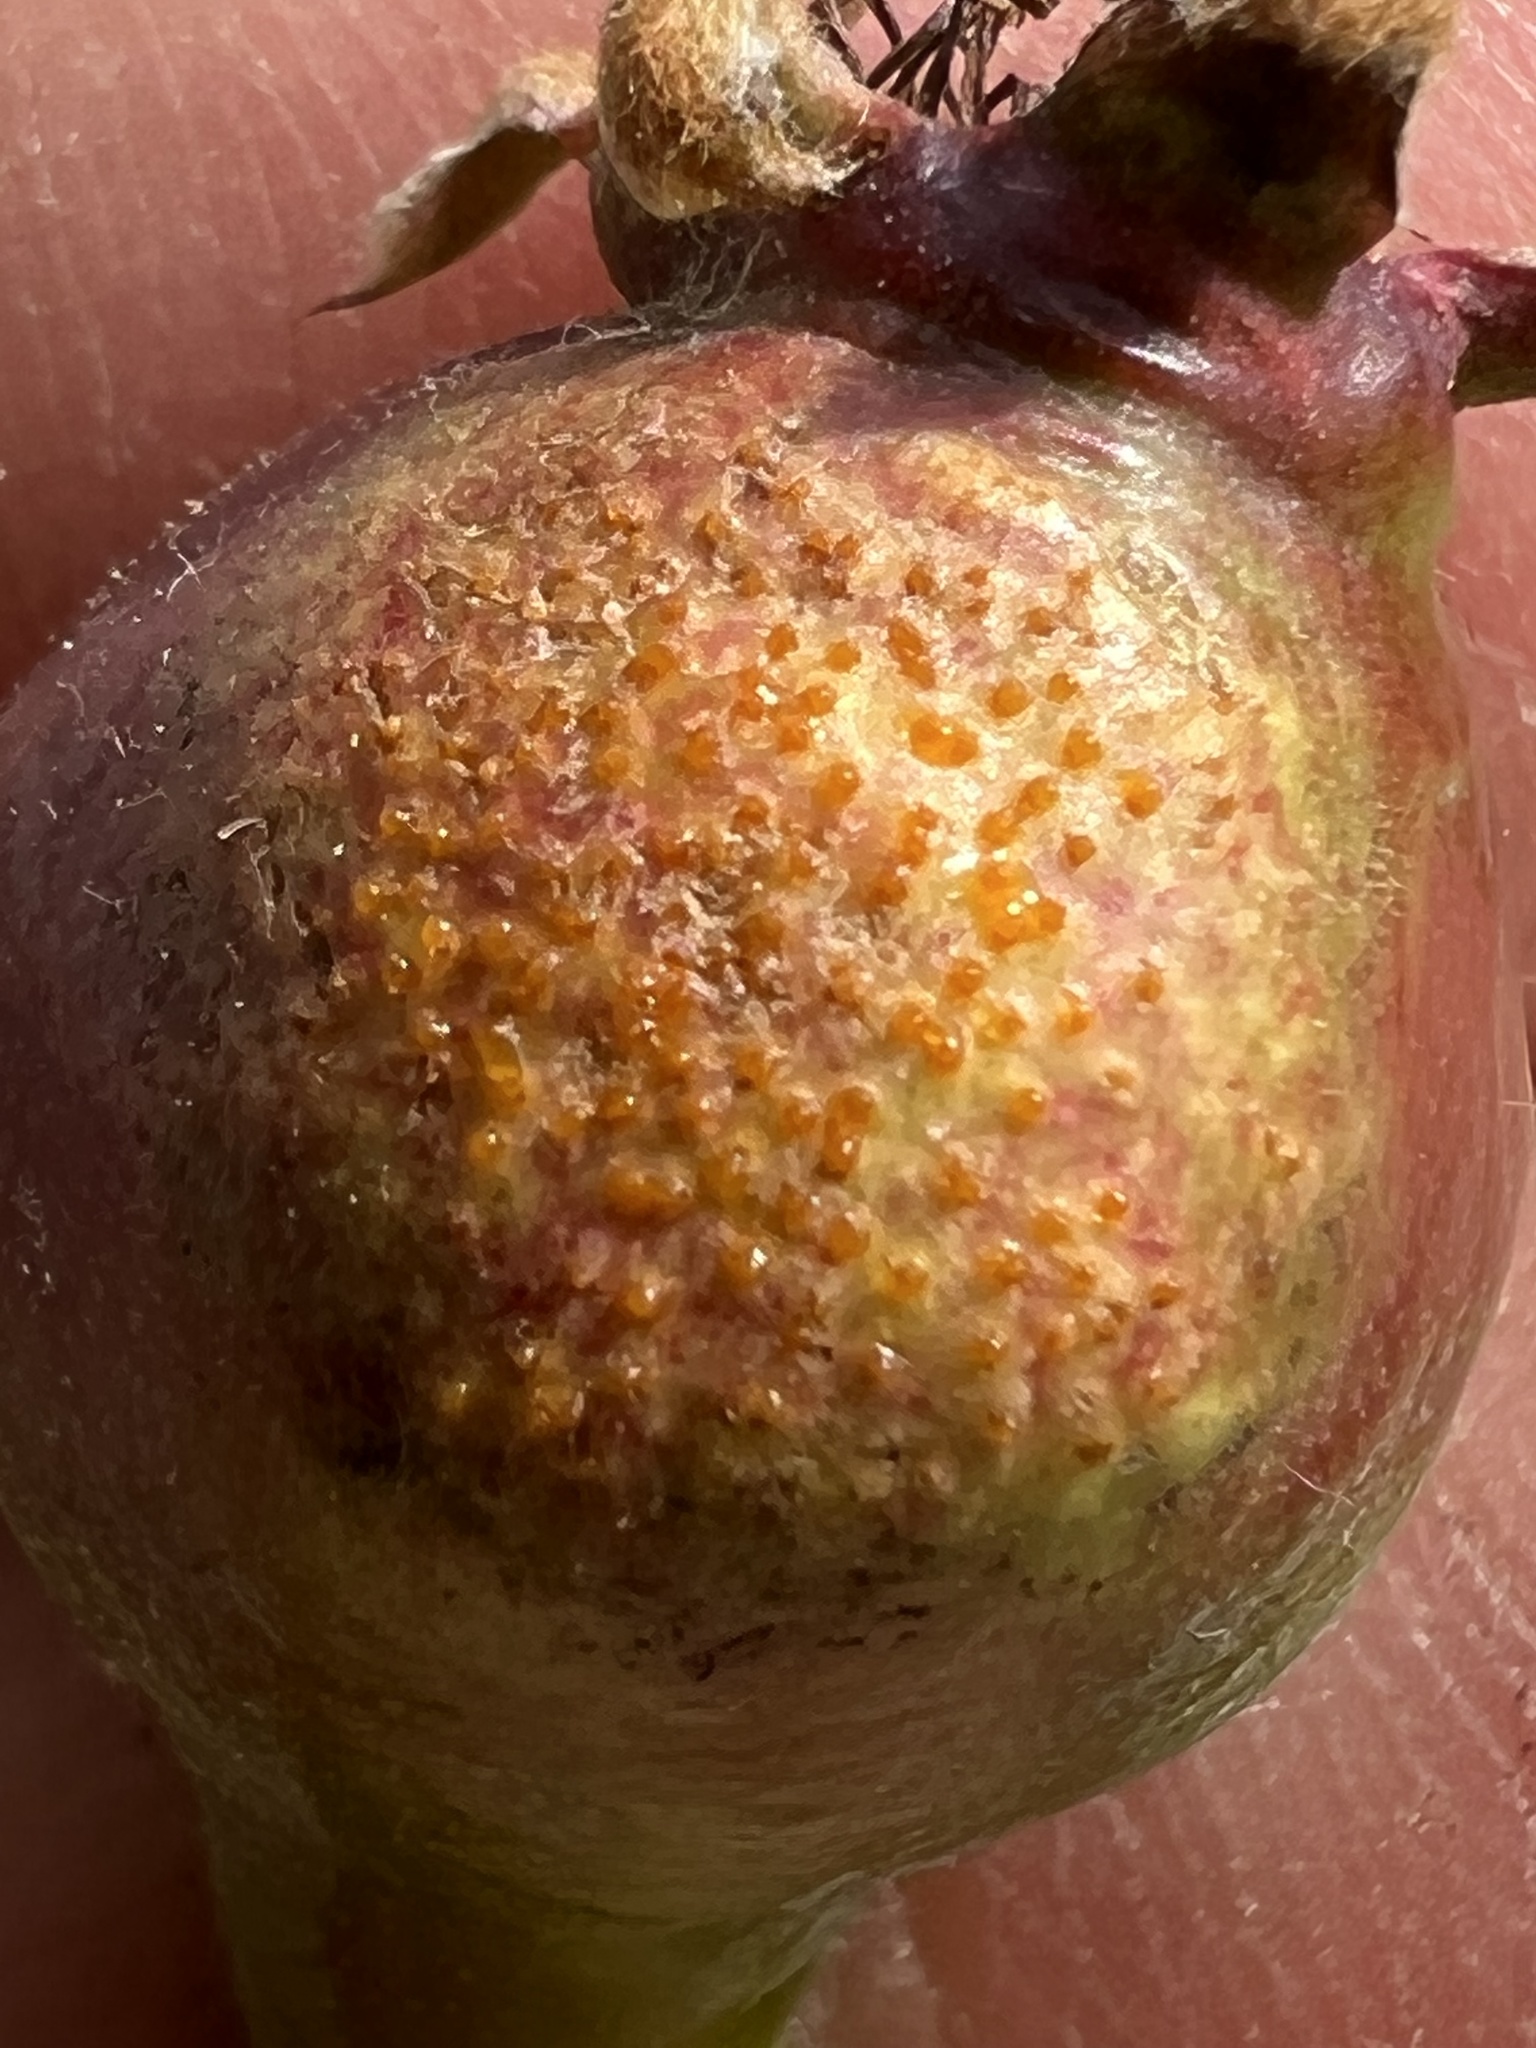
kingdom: Fungi
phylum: Basidiomycota
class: Pucciniomycetes
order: Pucciniales
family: Gymnosporangiaceae
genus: Gymnosporangium
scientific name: Gymnosporangium clavipes
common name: Quince rust
